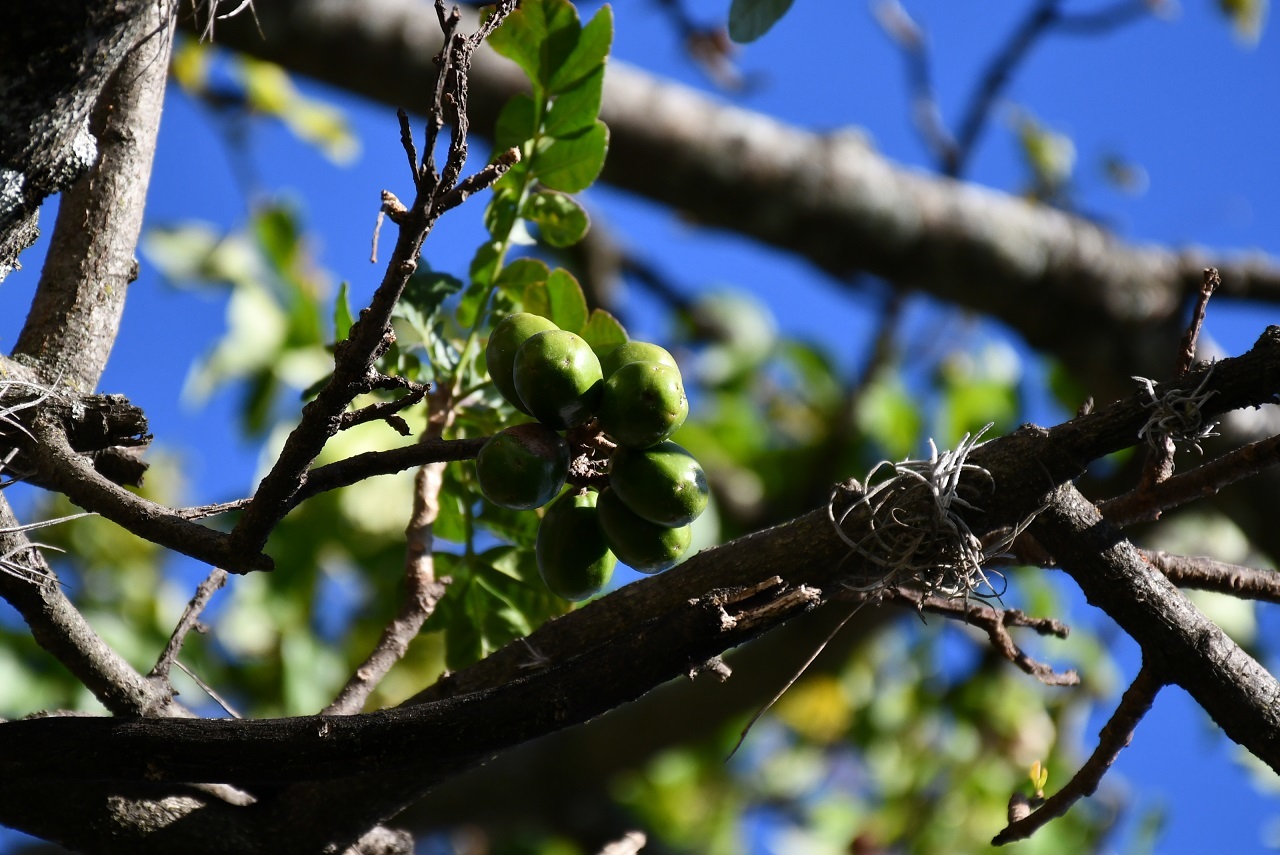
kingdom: Plantae
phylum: Tracheophyta
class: Magnoliopsida
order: Sapindales
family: Anacardiaceae
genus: Spondias
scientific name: Spondias purpurea
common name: Purple mombin
